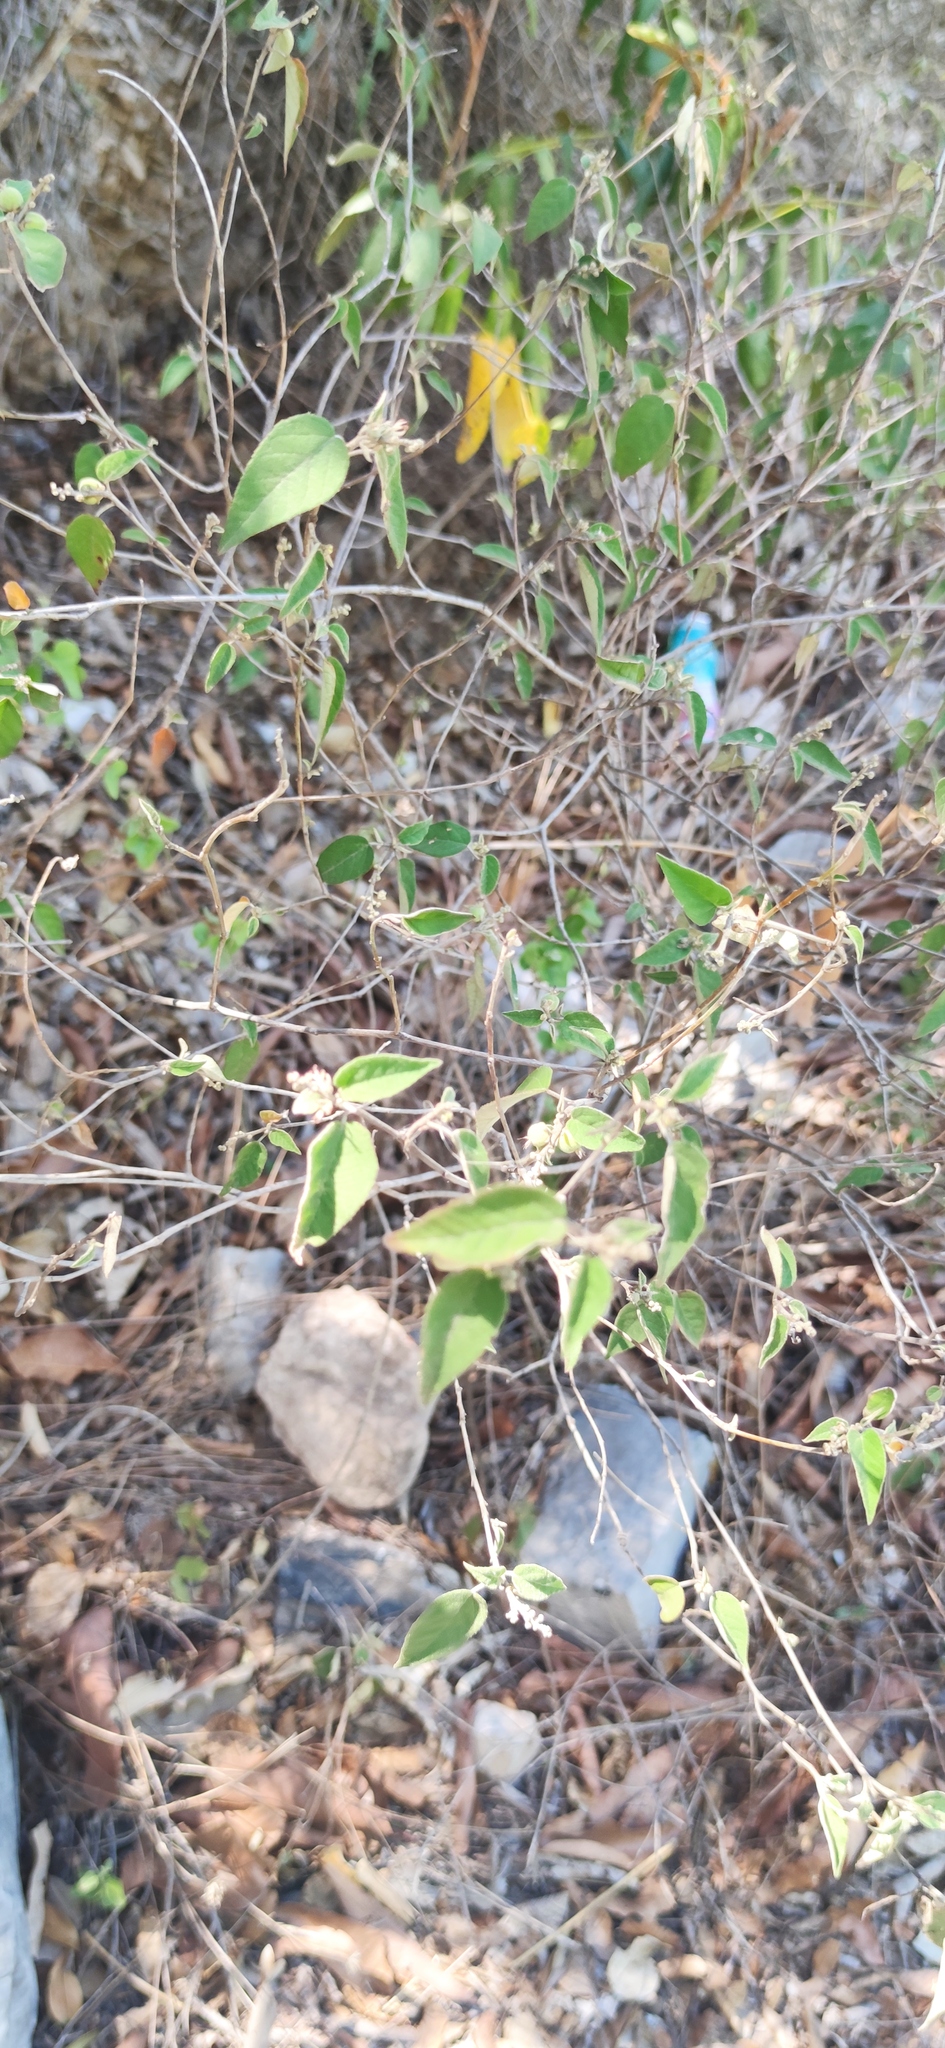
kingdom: Plantae
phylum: Tracheophyta
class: Magnoliopsida
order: Malpighiales
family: Euphorbiaceae
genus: Croton
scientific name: Croton virletianus
